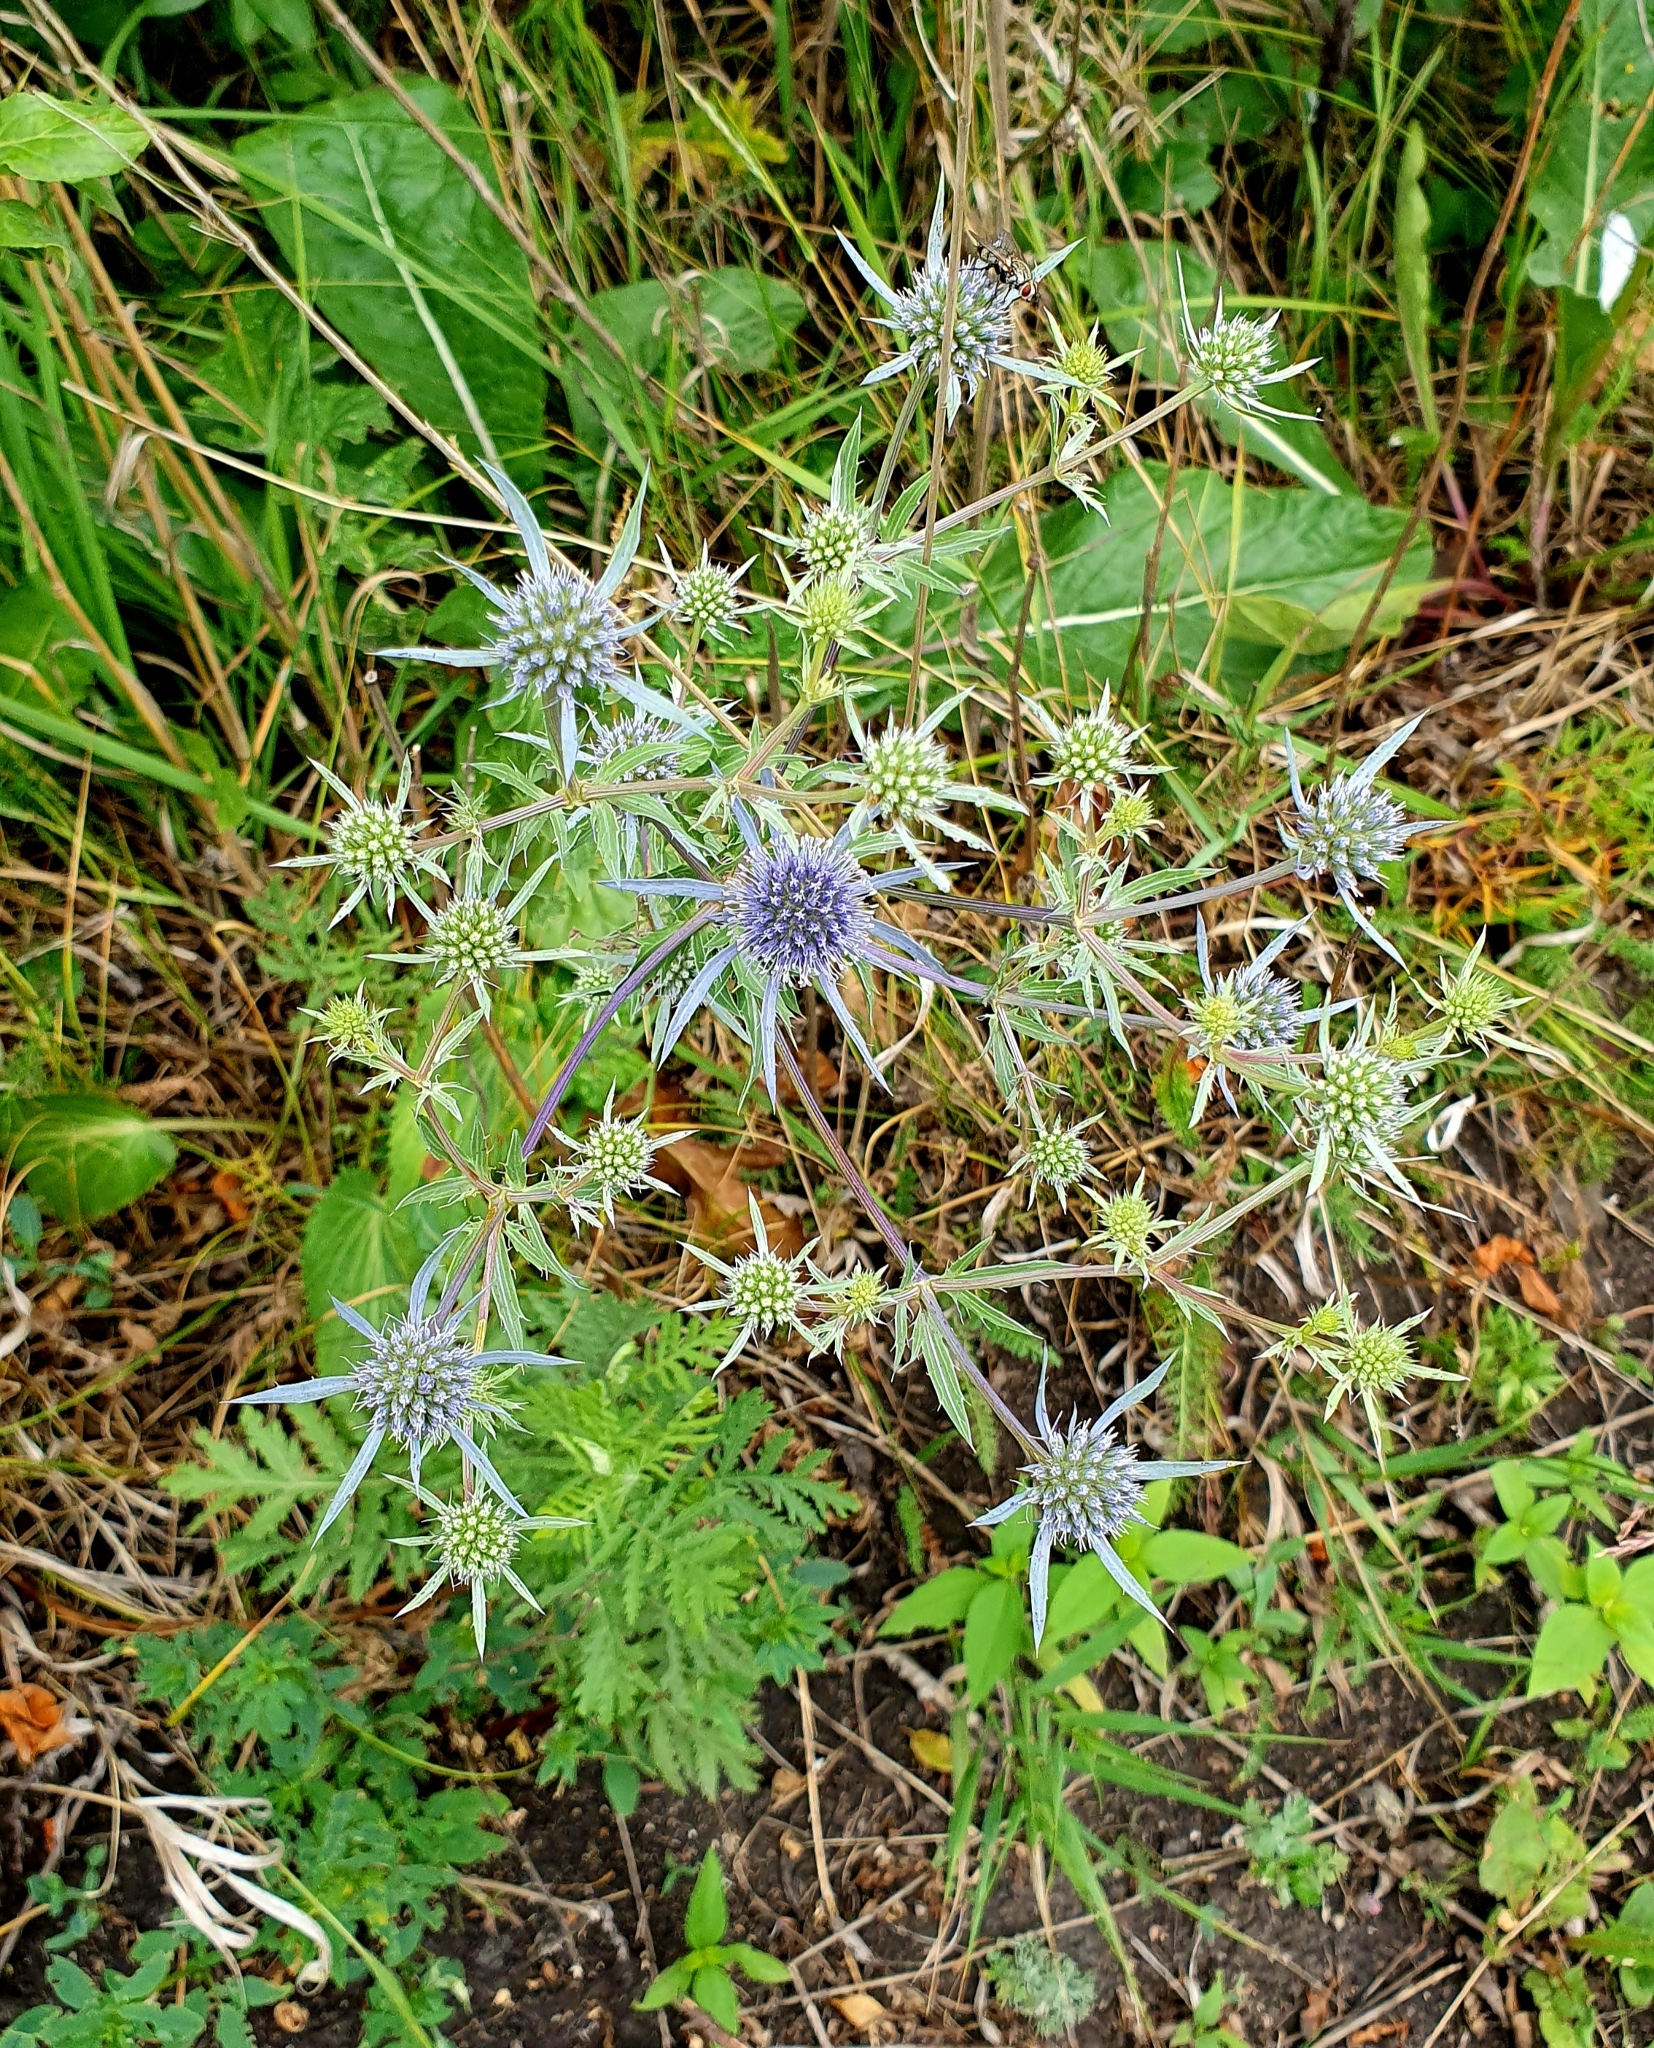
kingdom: Plantae
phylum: Tracheophyta
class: Magnoliopsida
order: Apiales
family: Apiaceae
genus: Eryngium
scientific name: Eryngium planum
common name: Blue eryngo
